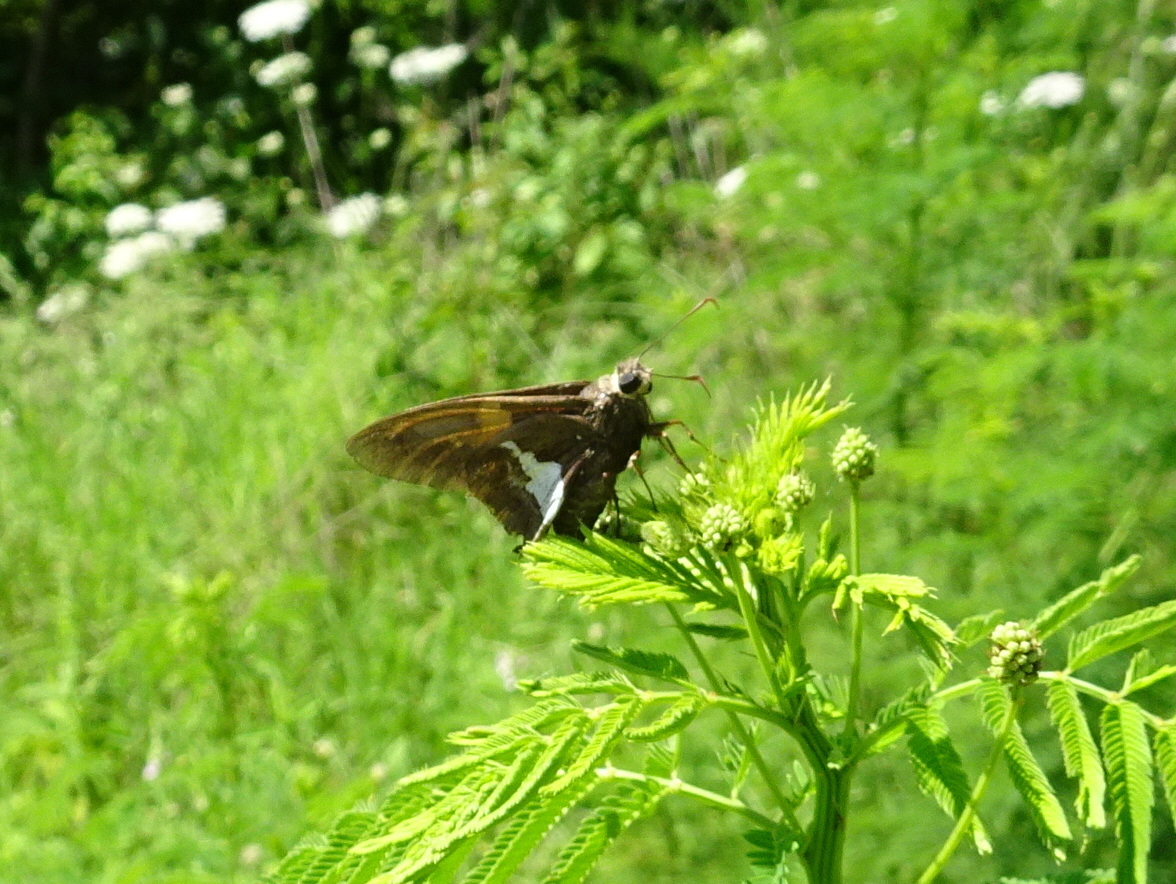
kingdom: Animalia
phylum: Arthropoda
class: Insecta
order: Lepidoptera
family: Hesperiidae
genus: Epargyreus
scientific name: Epargyreus clarus
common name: Silver-spotted skipper
